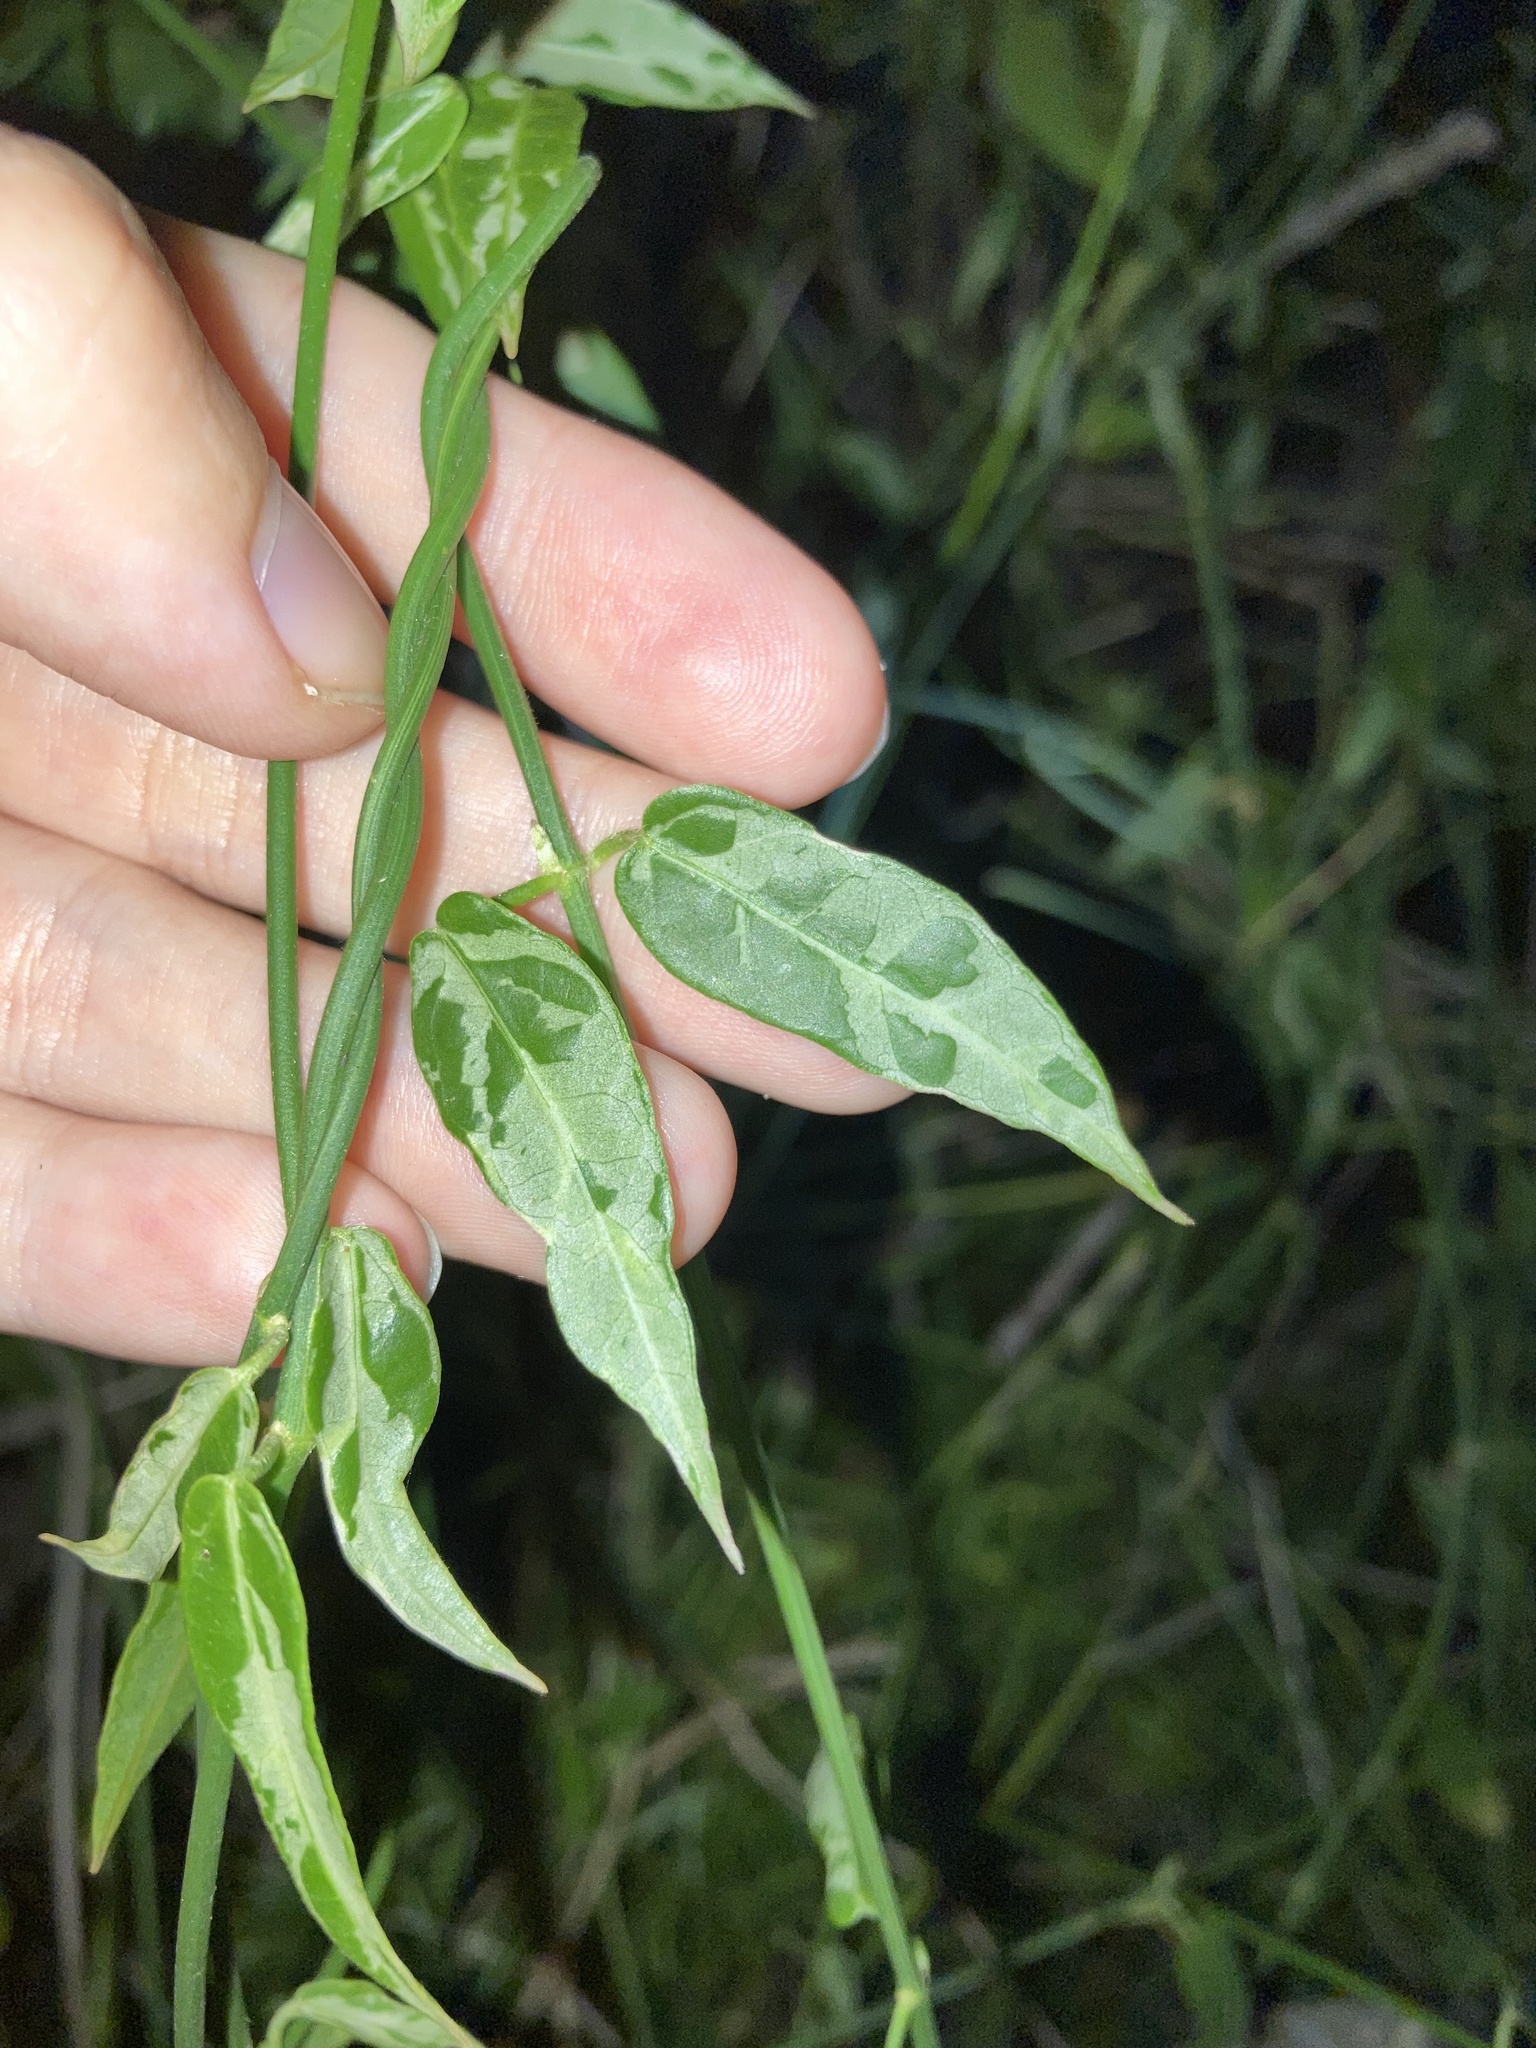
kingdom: Plantae
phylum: Tracheophyta
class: Magnoliopsida
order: Gentianales
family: Apocynaceae
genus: Funastrum
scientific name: Funastrum clausum
